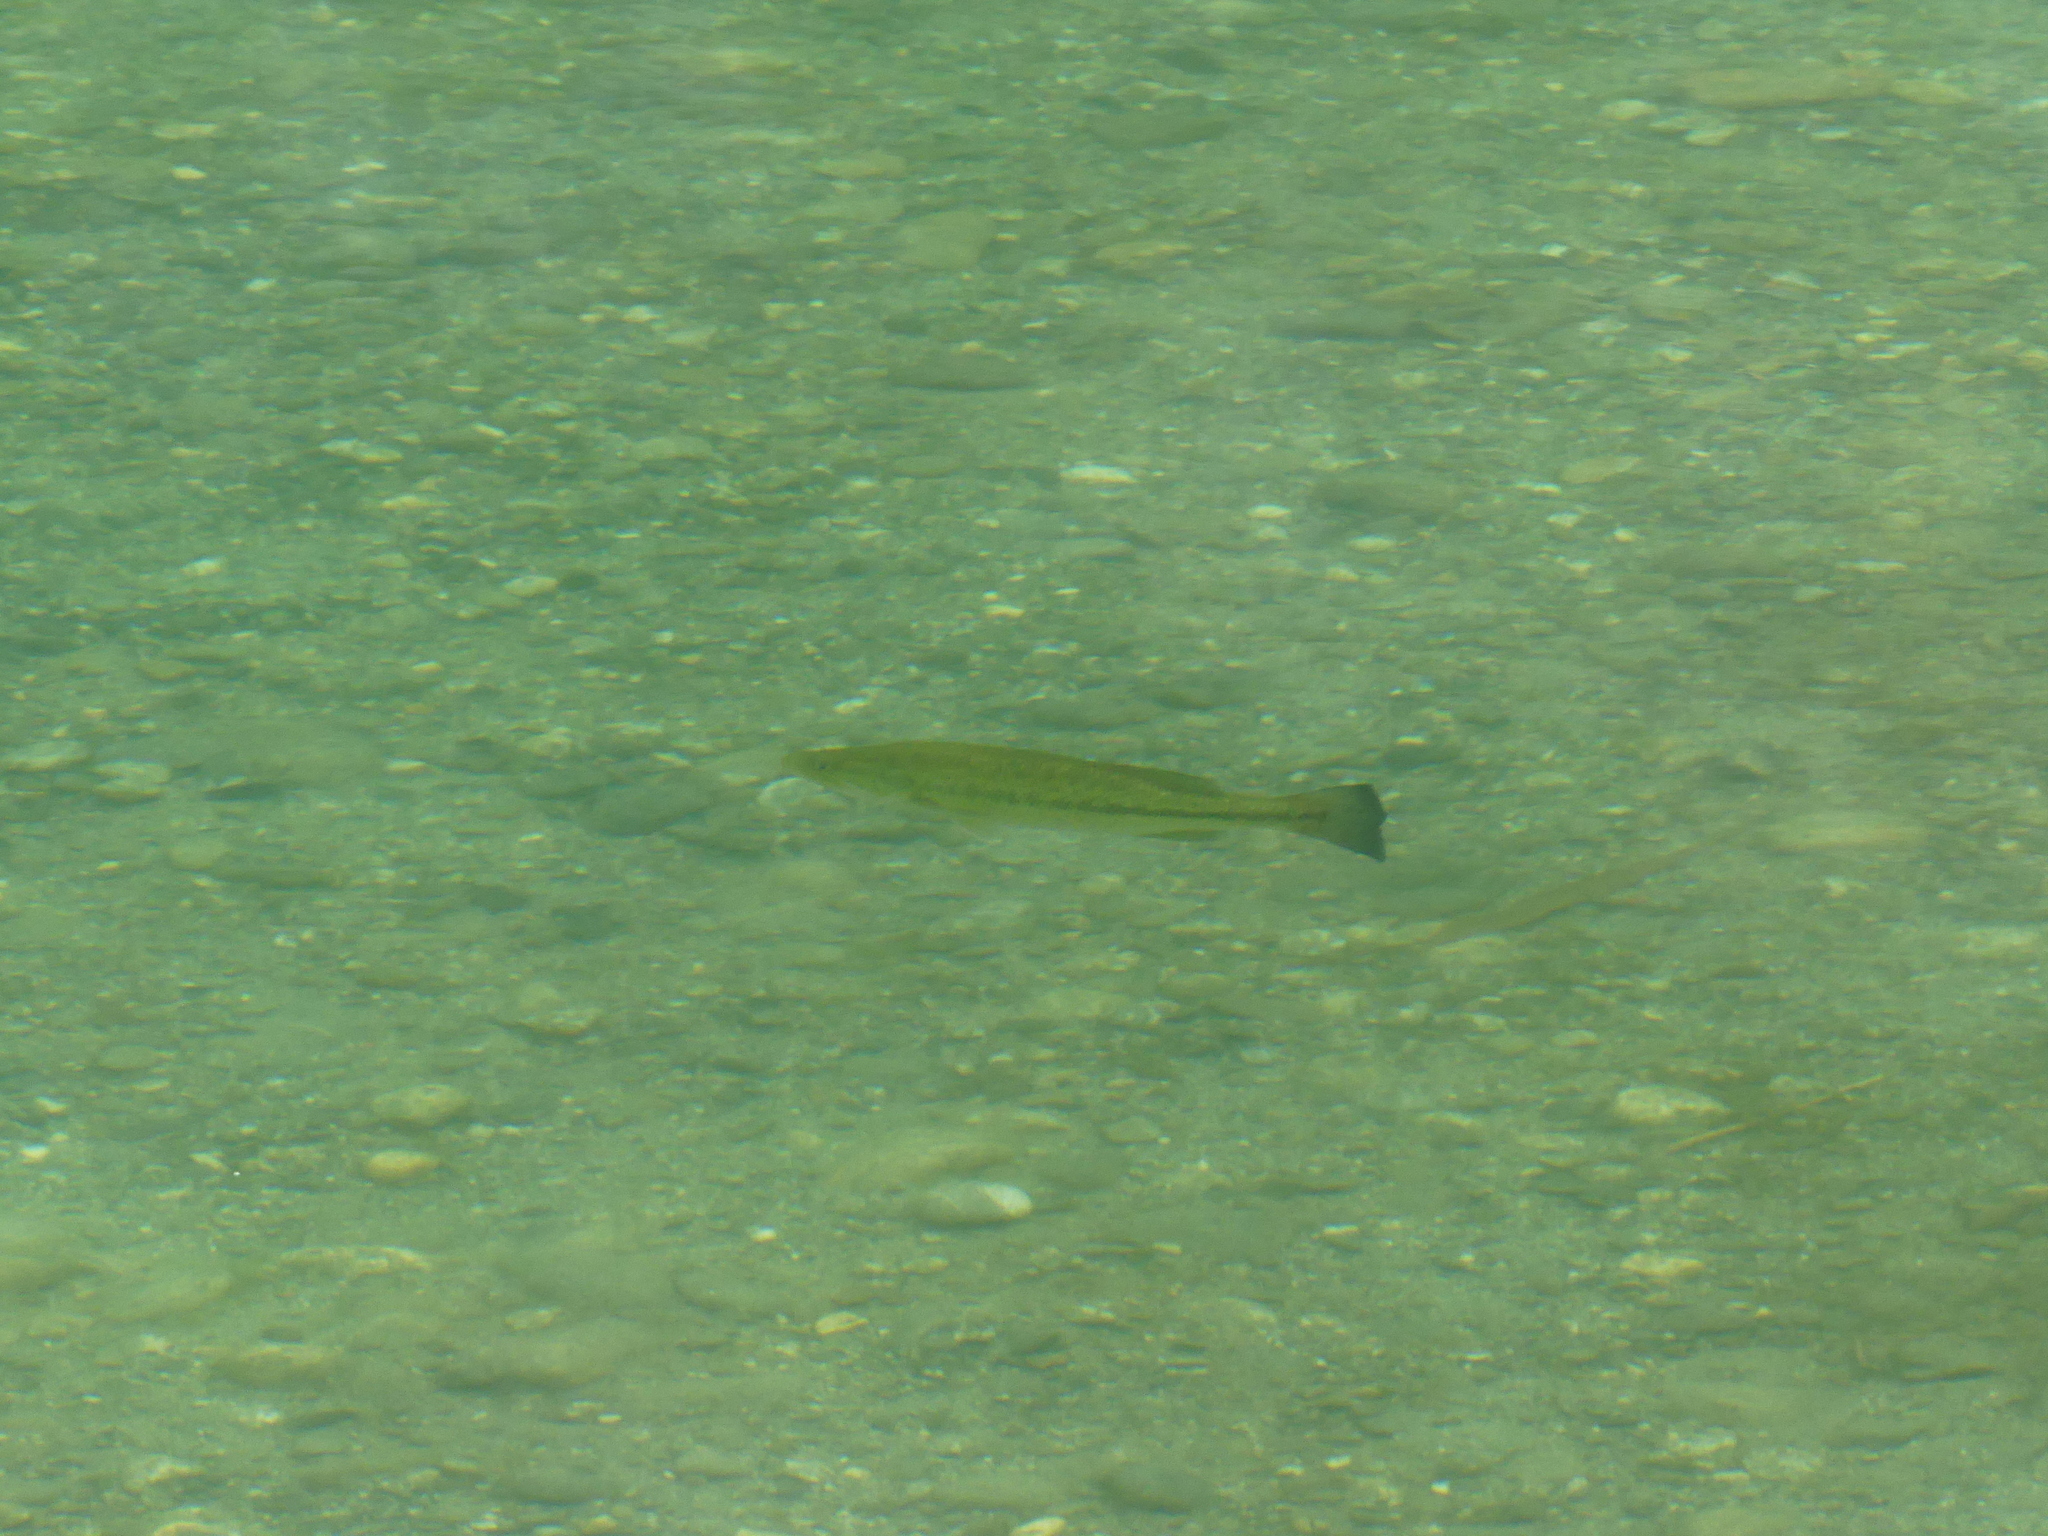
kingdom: Animalia
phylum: Chordata
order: Perciformes
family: Centrarchidae
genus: Micropterus
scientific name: Micropterus
